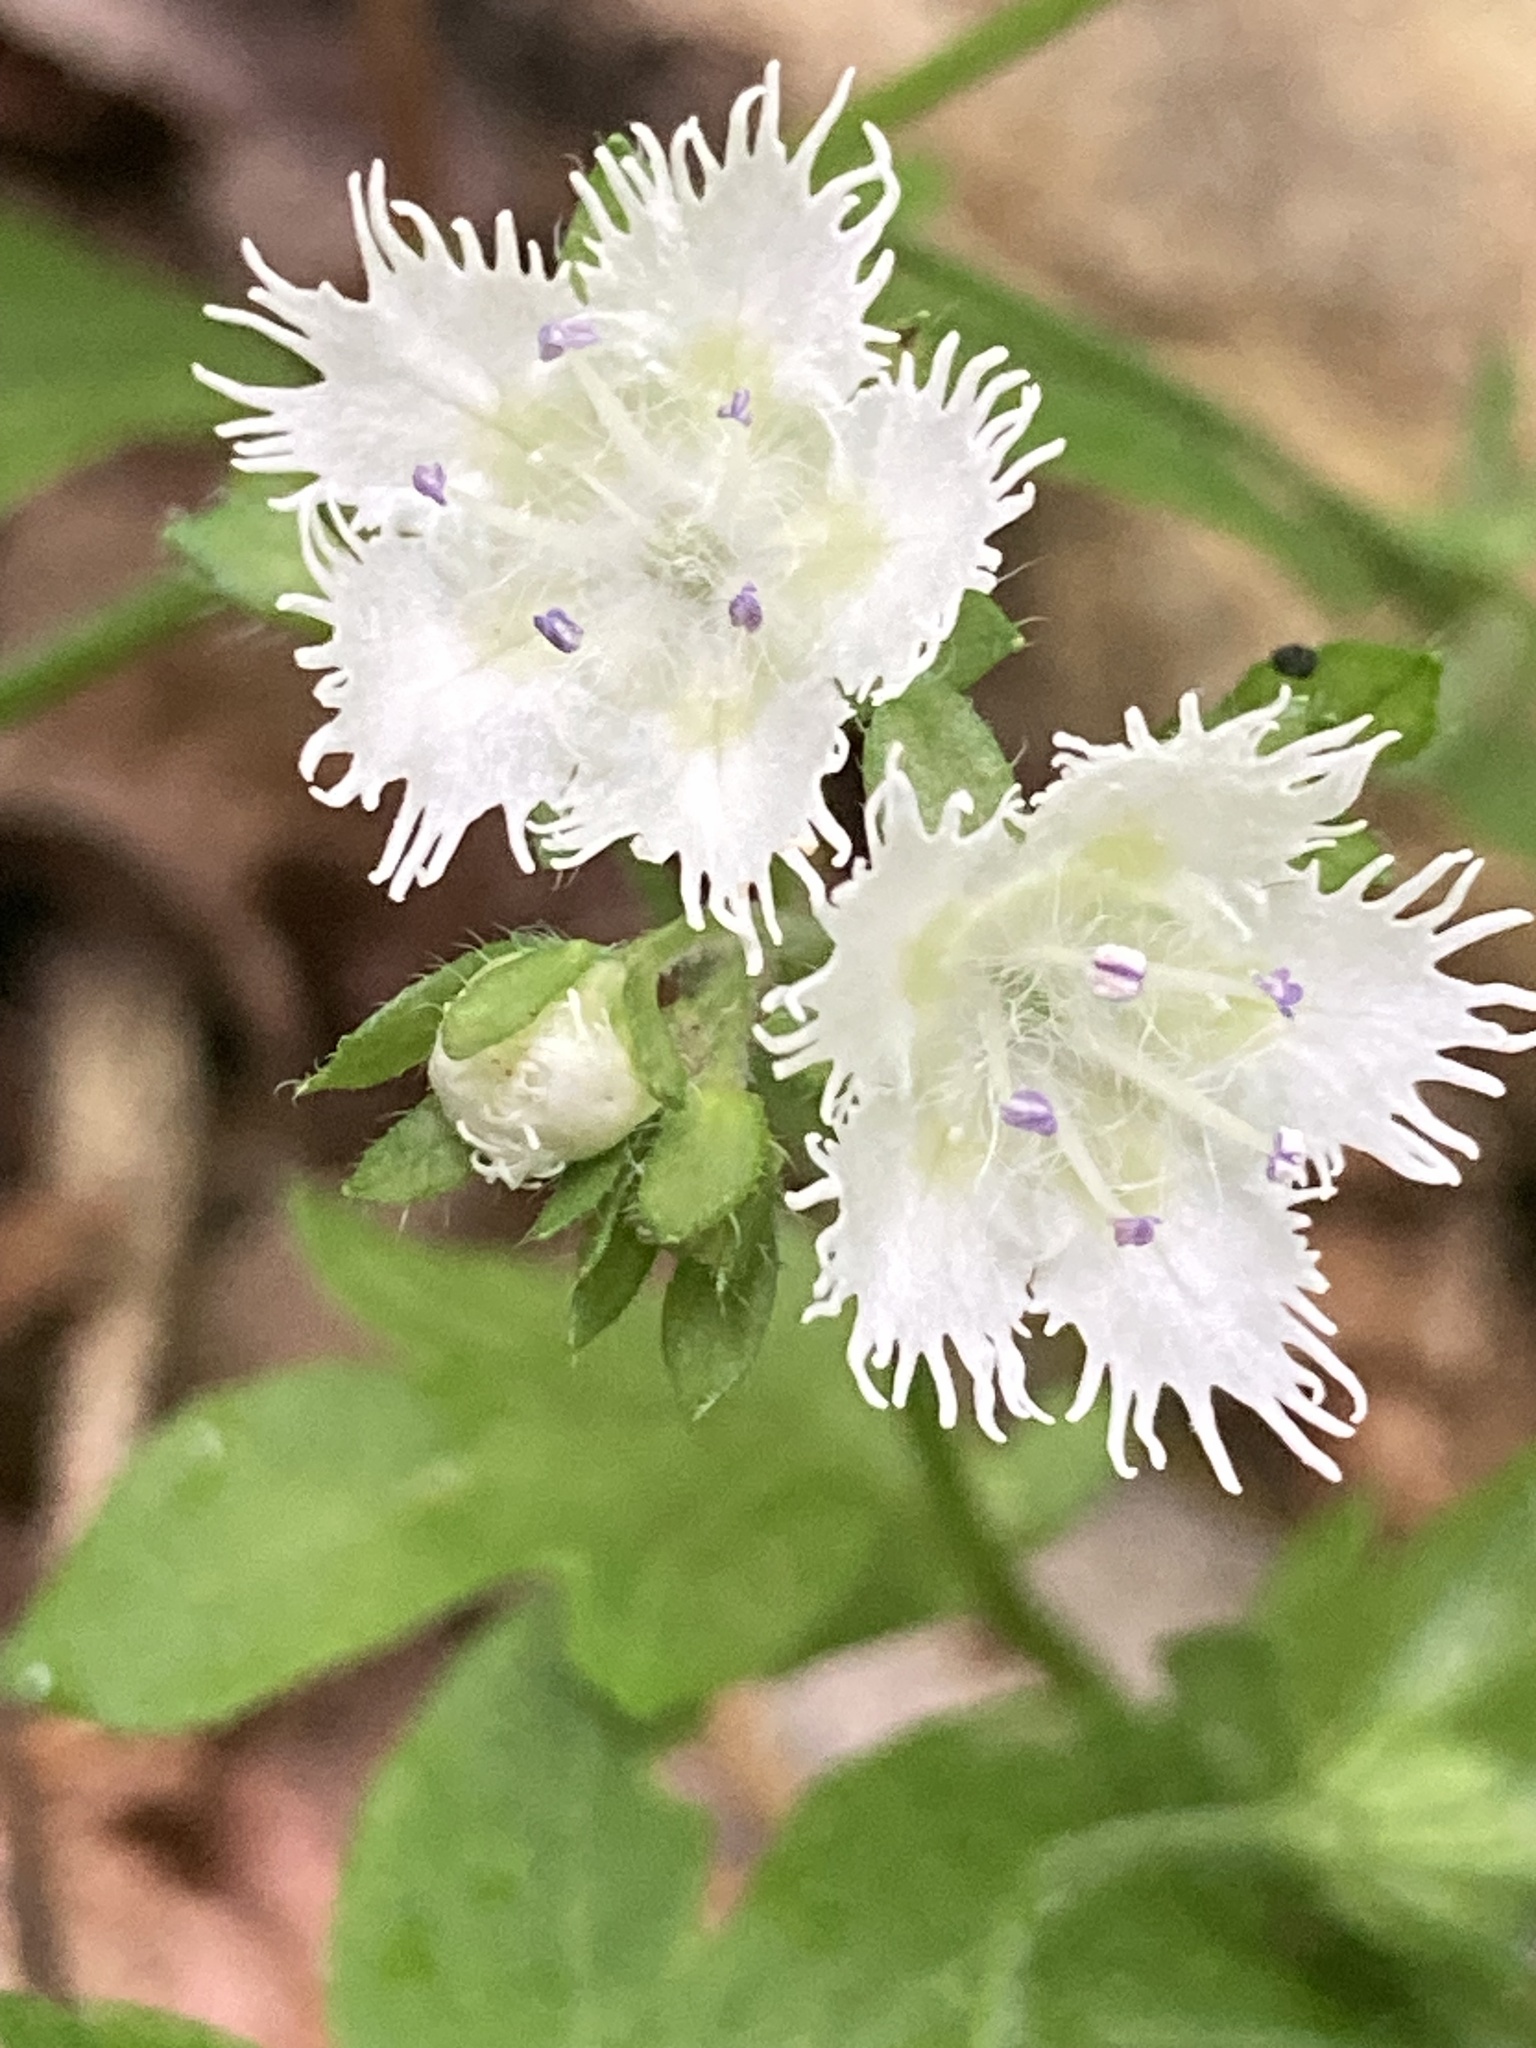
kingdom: Plantae
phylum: Tracheophyta
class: Magnoliopsida
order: Boraginales
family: Hydrophyllaceae
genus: Phacelia
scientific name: Phacelia fimbriata
